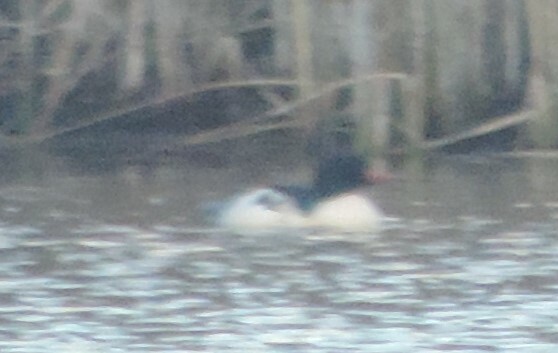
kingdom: Animalia
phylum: Chordata
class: Aves
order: Anseriformes
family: Anatidae
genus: Mergus
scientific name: Mergus merganser
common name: Common merganser
